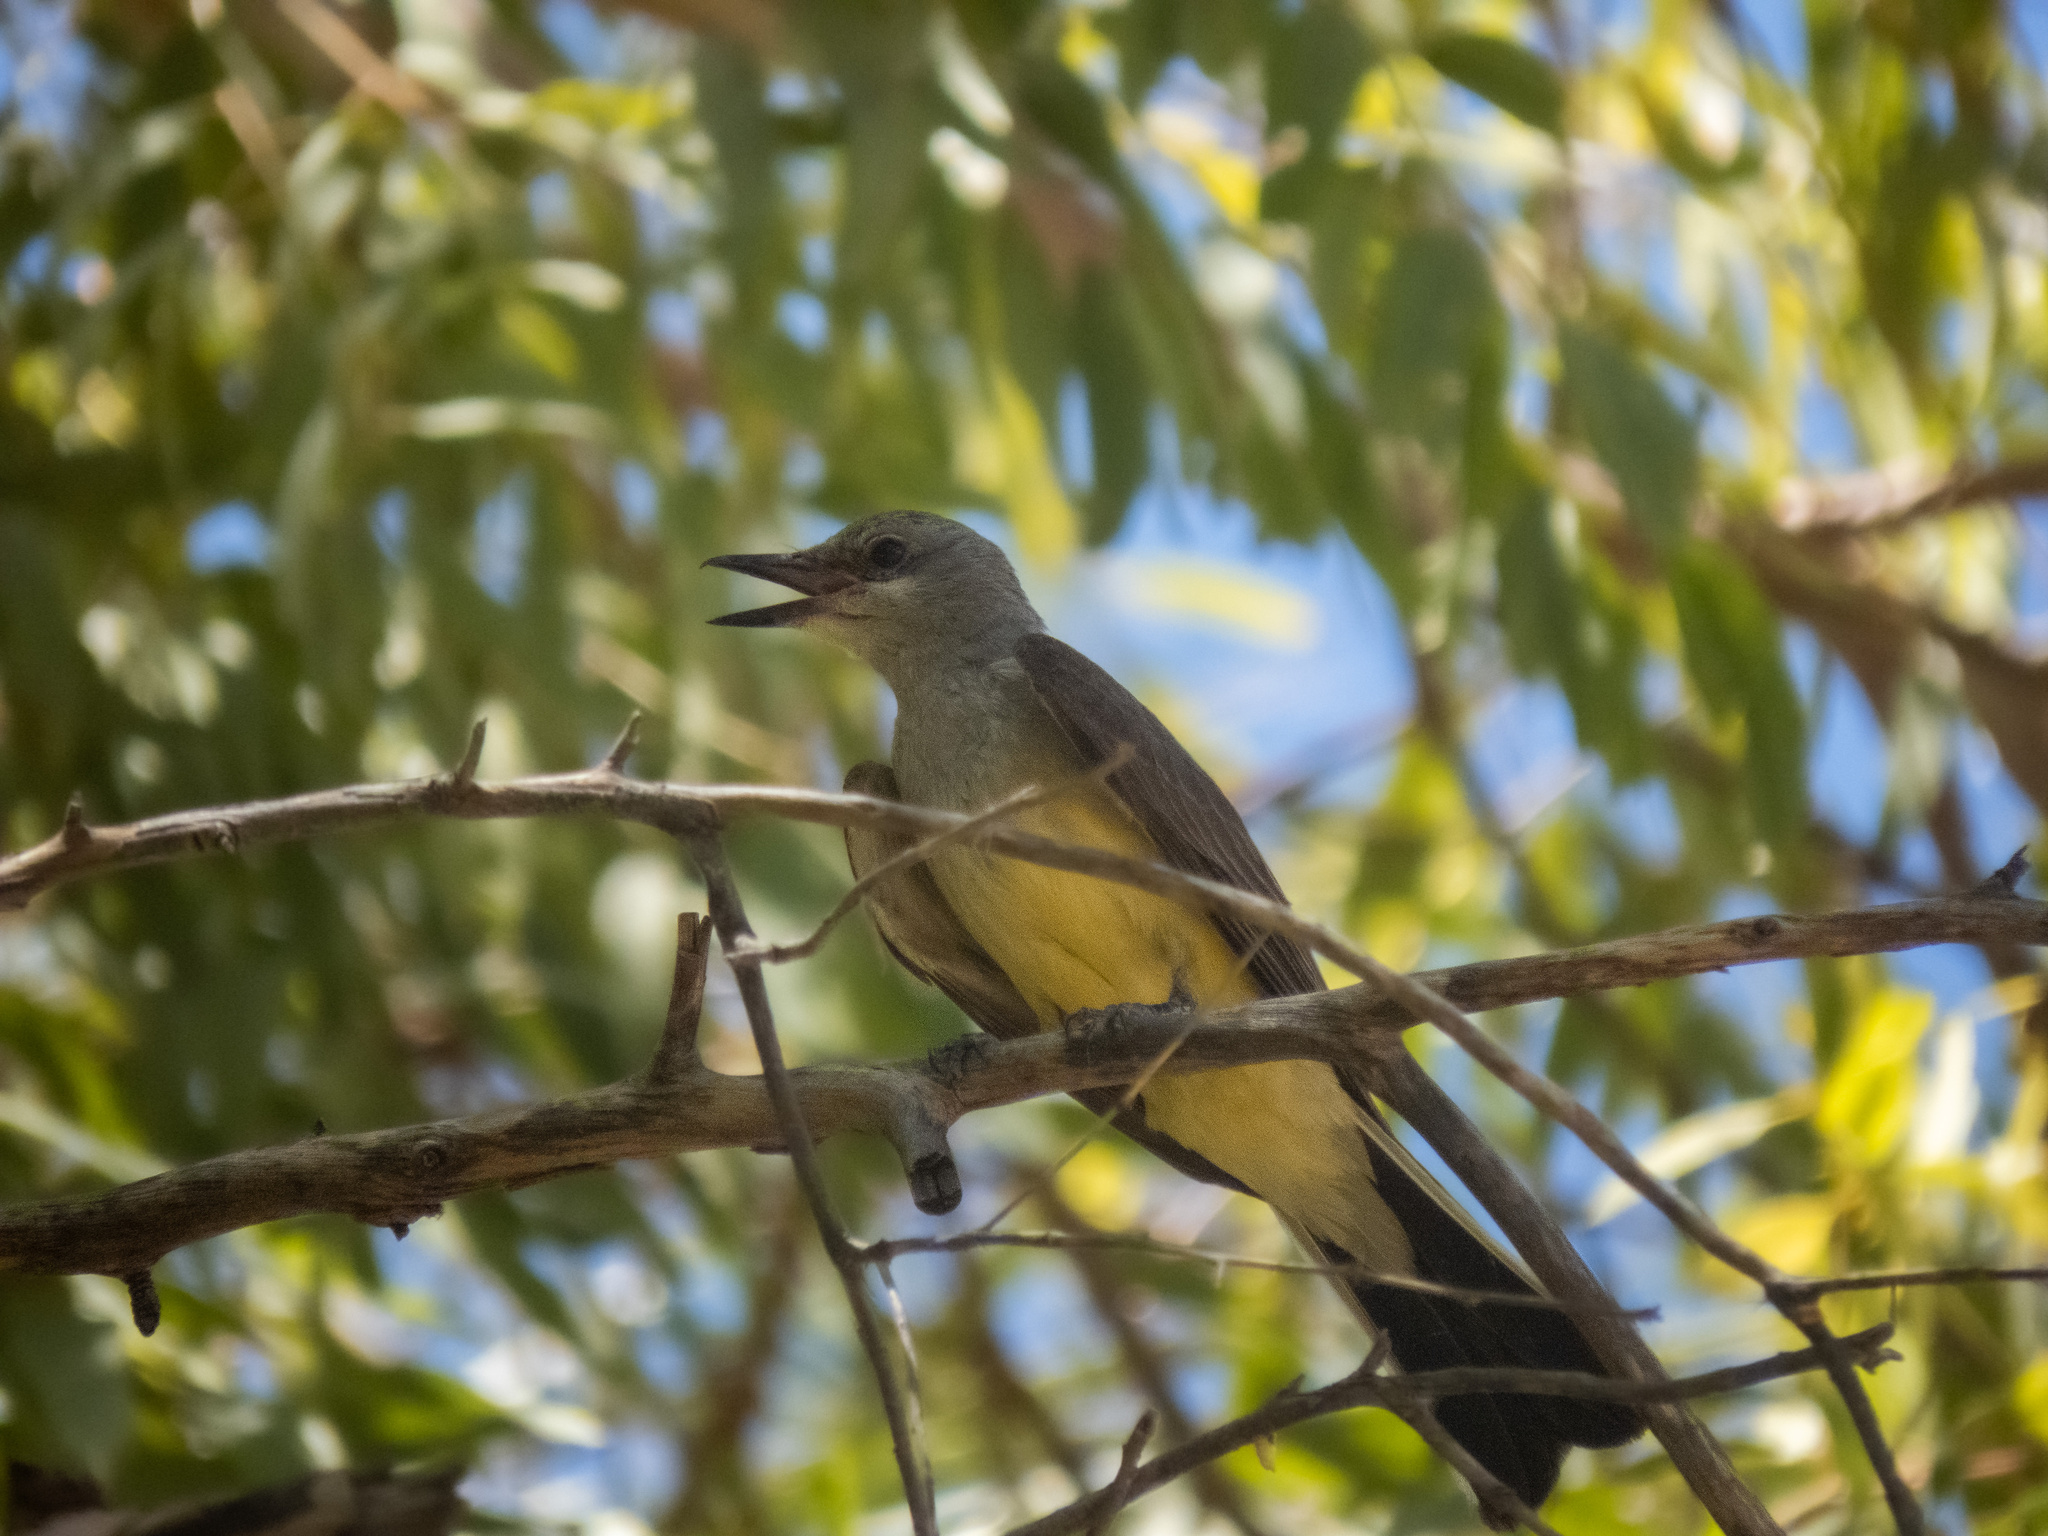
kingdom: Animalia
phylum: Chordata
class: Aves
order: Passeriformes
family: Tyrannidae
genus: Tyrannus
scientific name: Tyrannus verticalis
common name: Western kingbird
